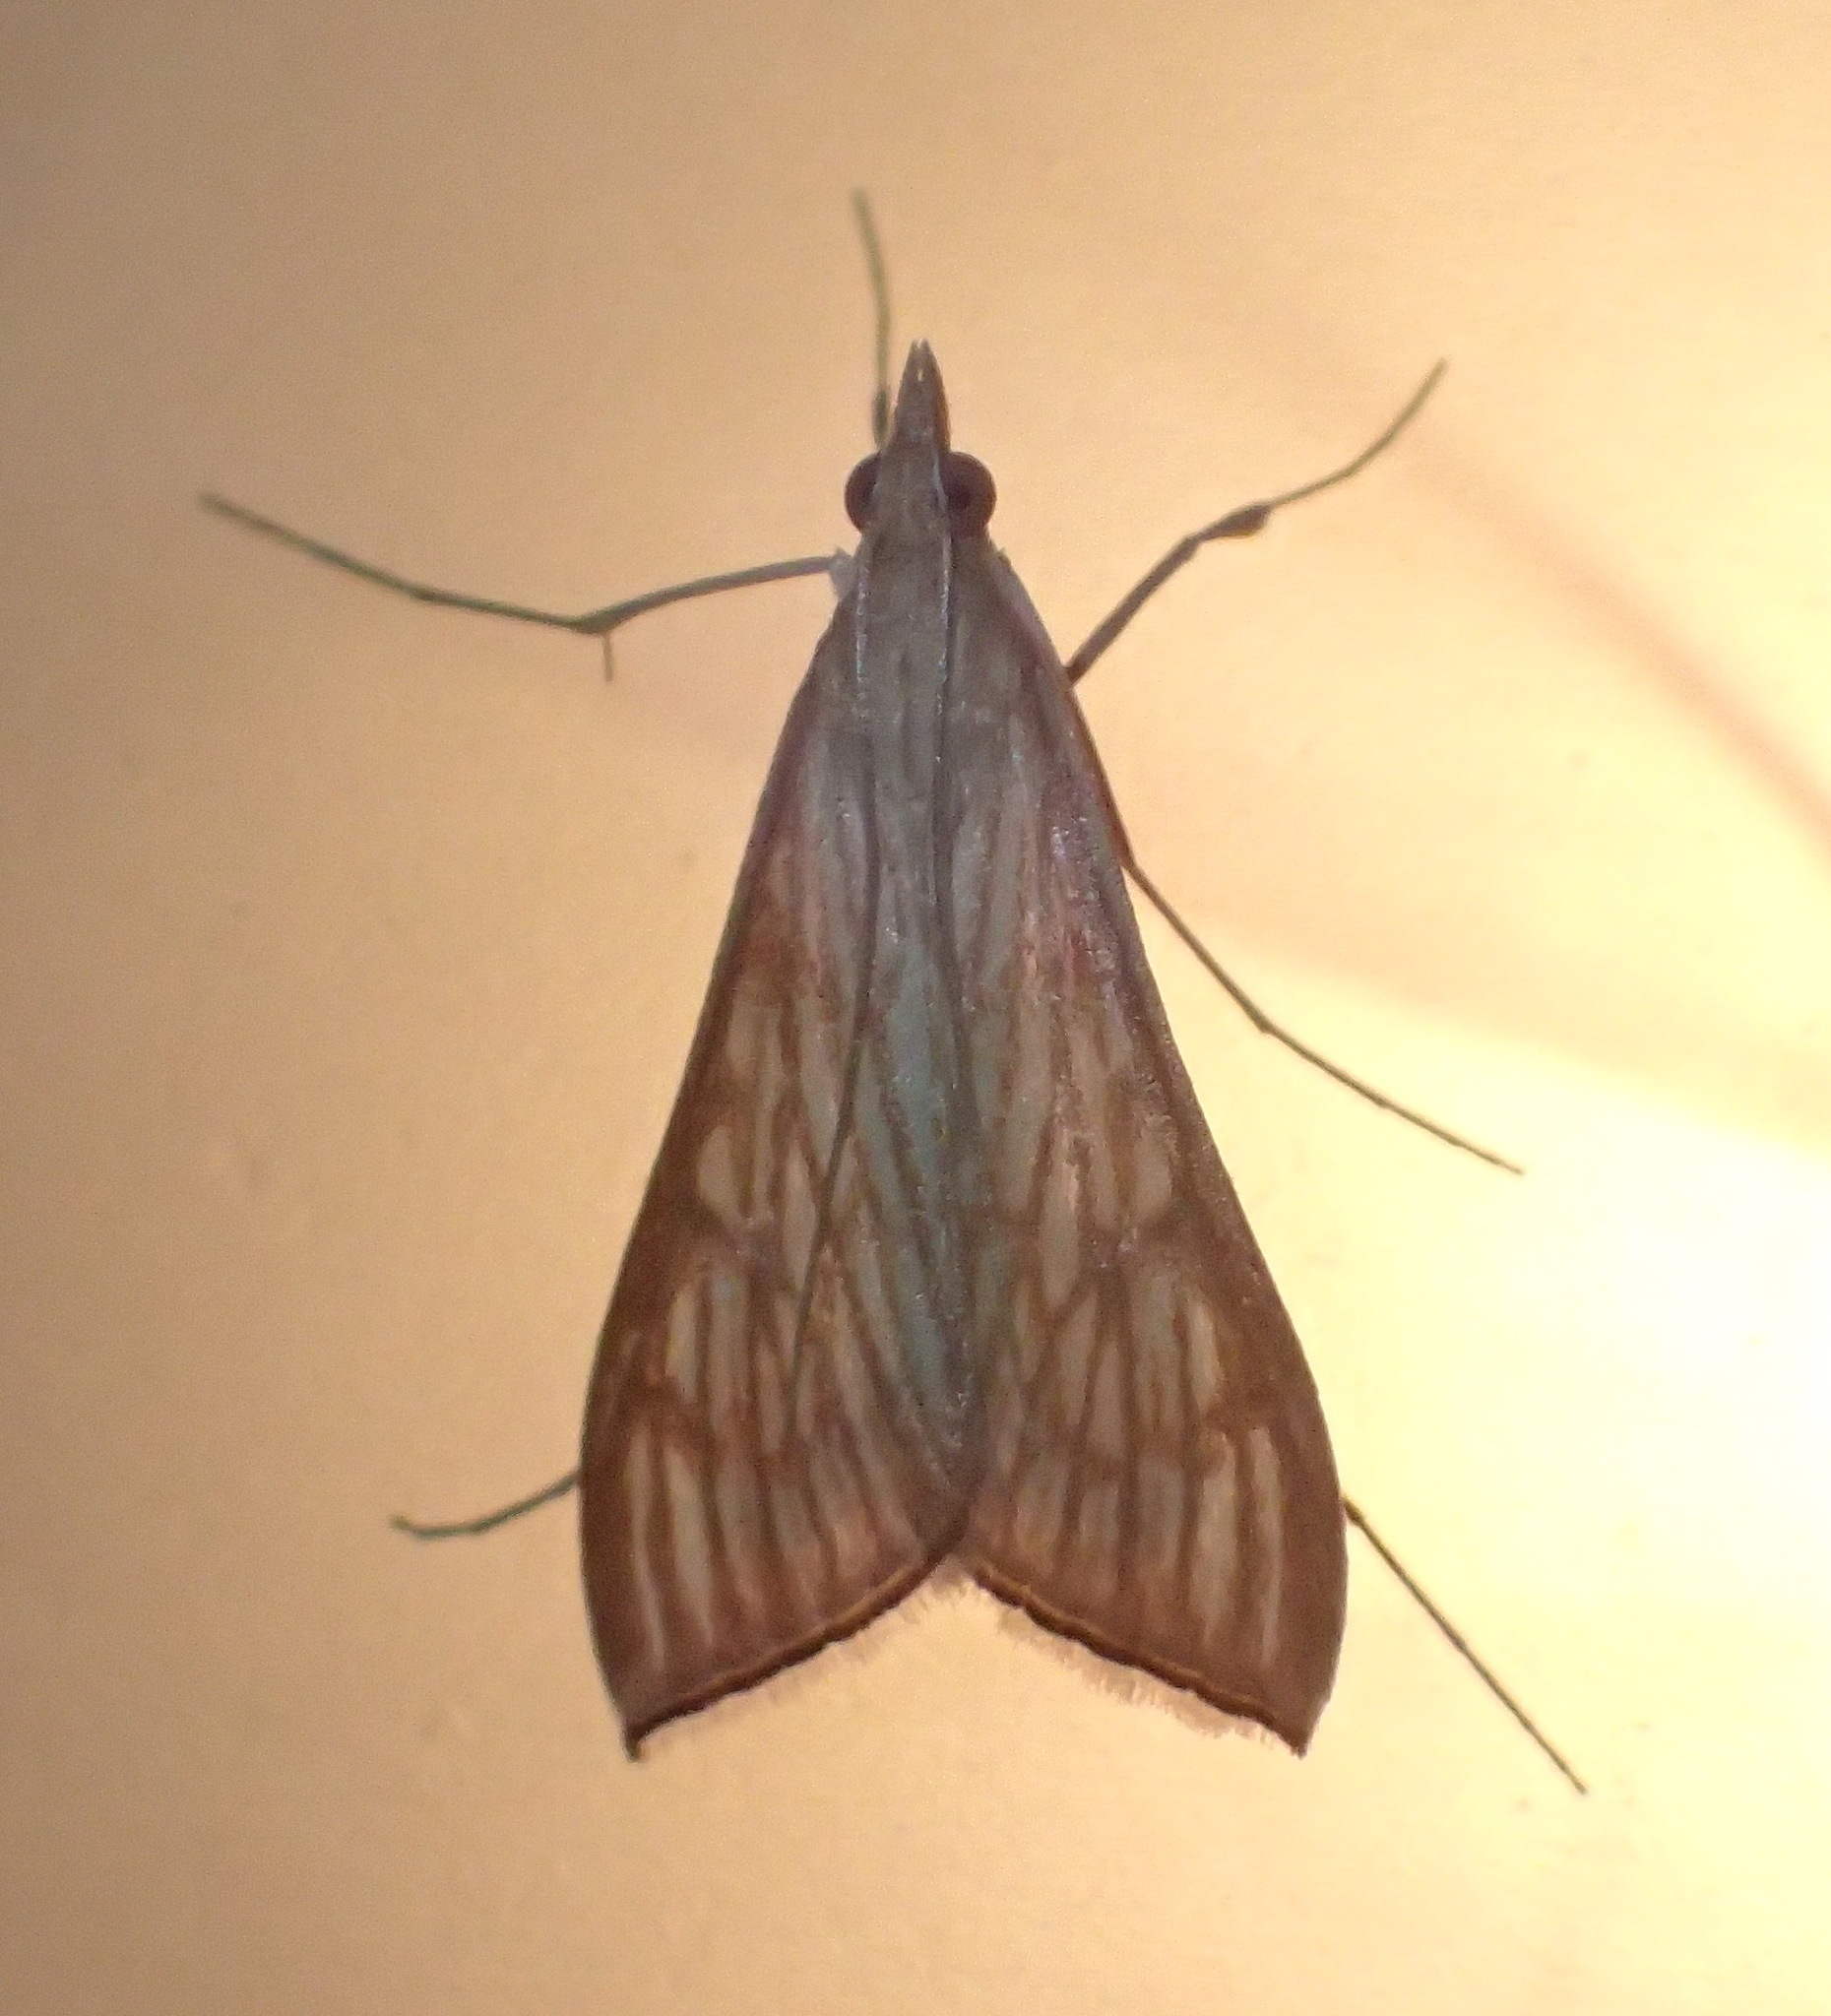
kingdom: Animalia
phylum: Arthropoda
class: Insecta
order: Lepidoptera
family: Crambidae
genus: Antigastra
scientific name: Antigastra catalaunalis
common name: Spanish dot
